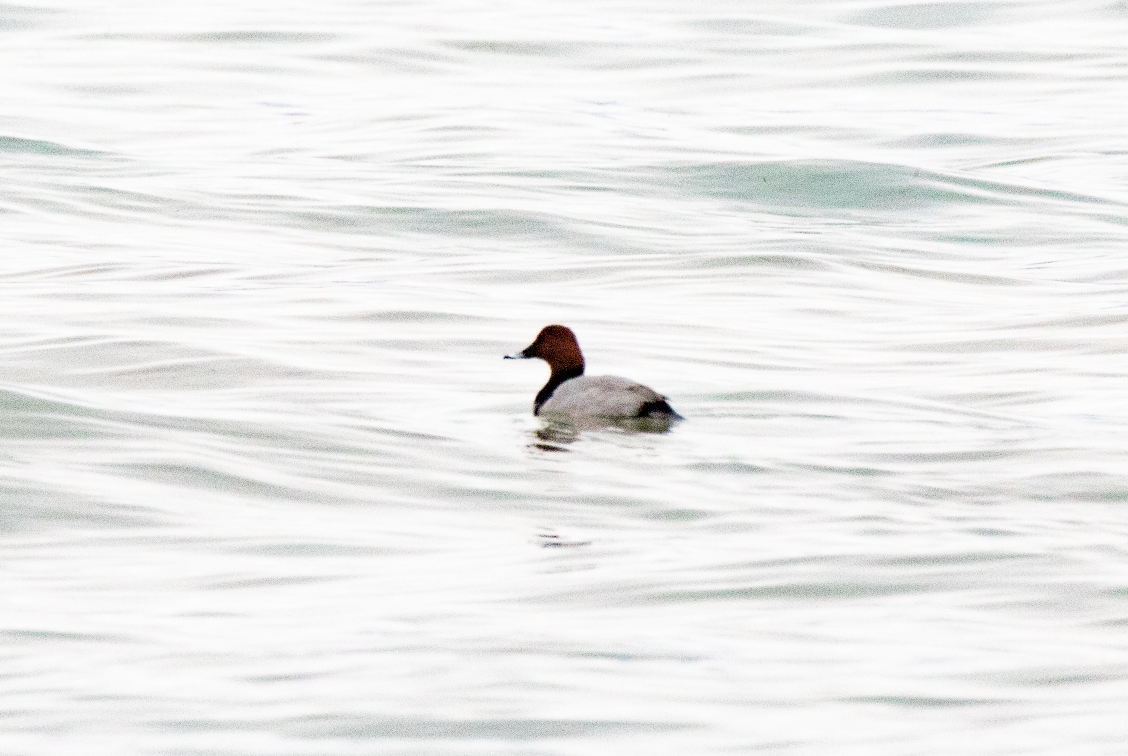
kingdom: Animalia
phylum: Chordata
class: Aves
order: Anseriformes
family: Anatidae
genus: Aythya
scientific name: Aythya ferina
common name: Common pochard
